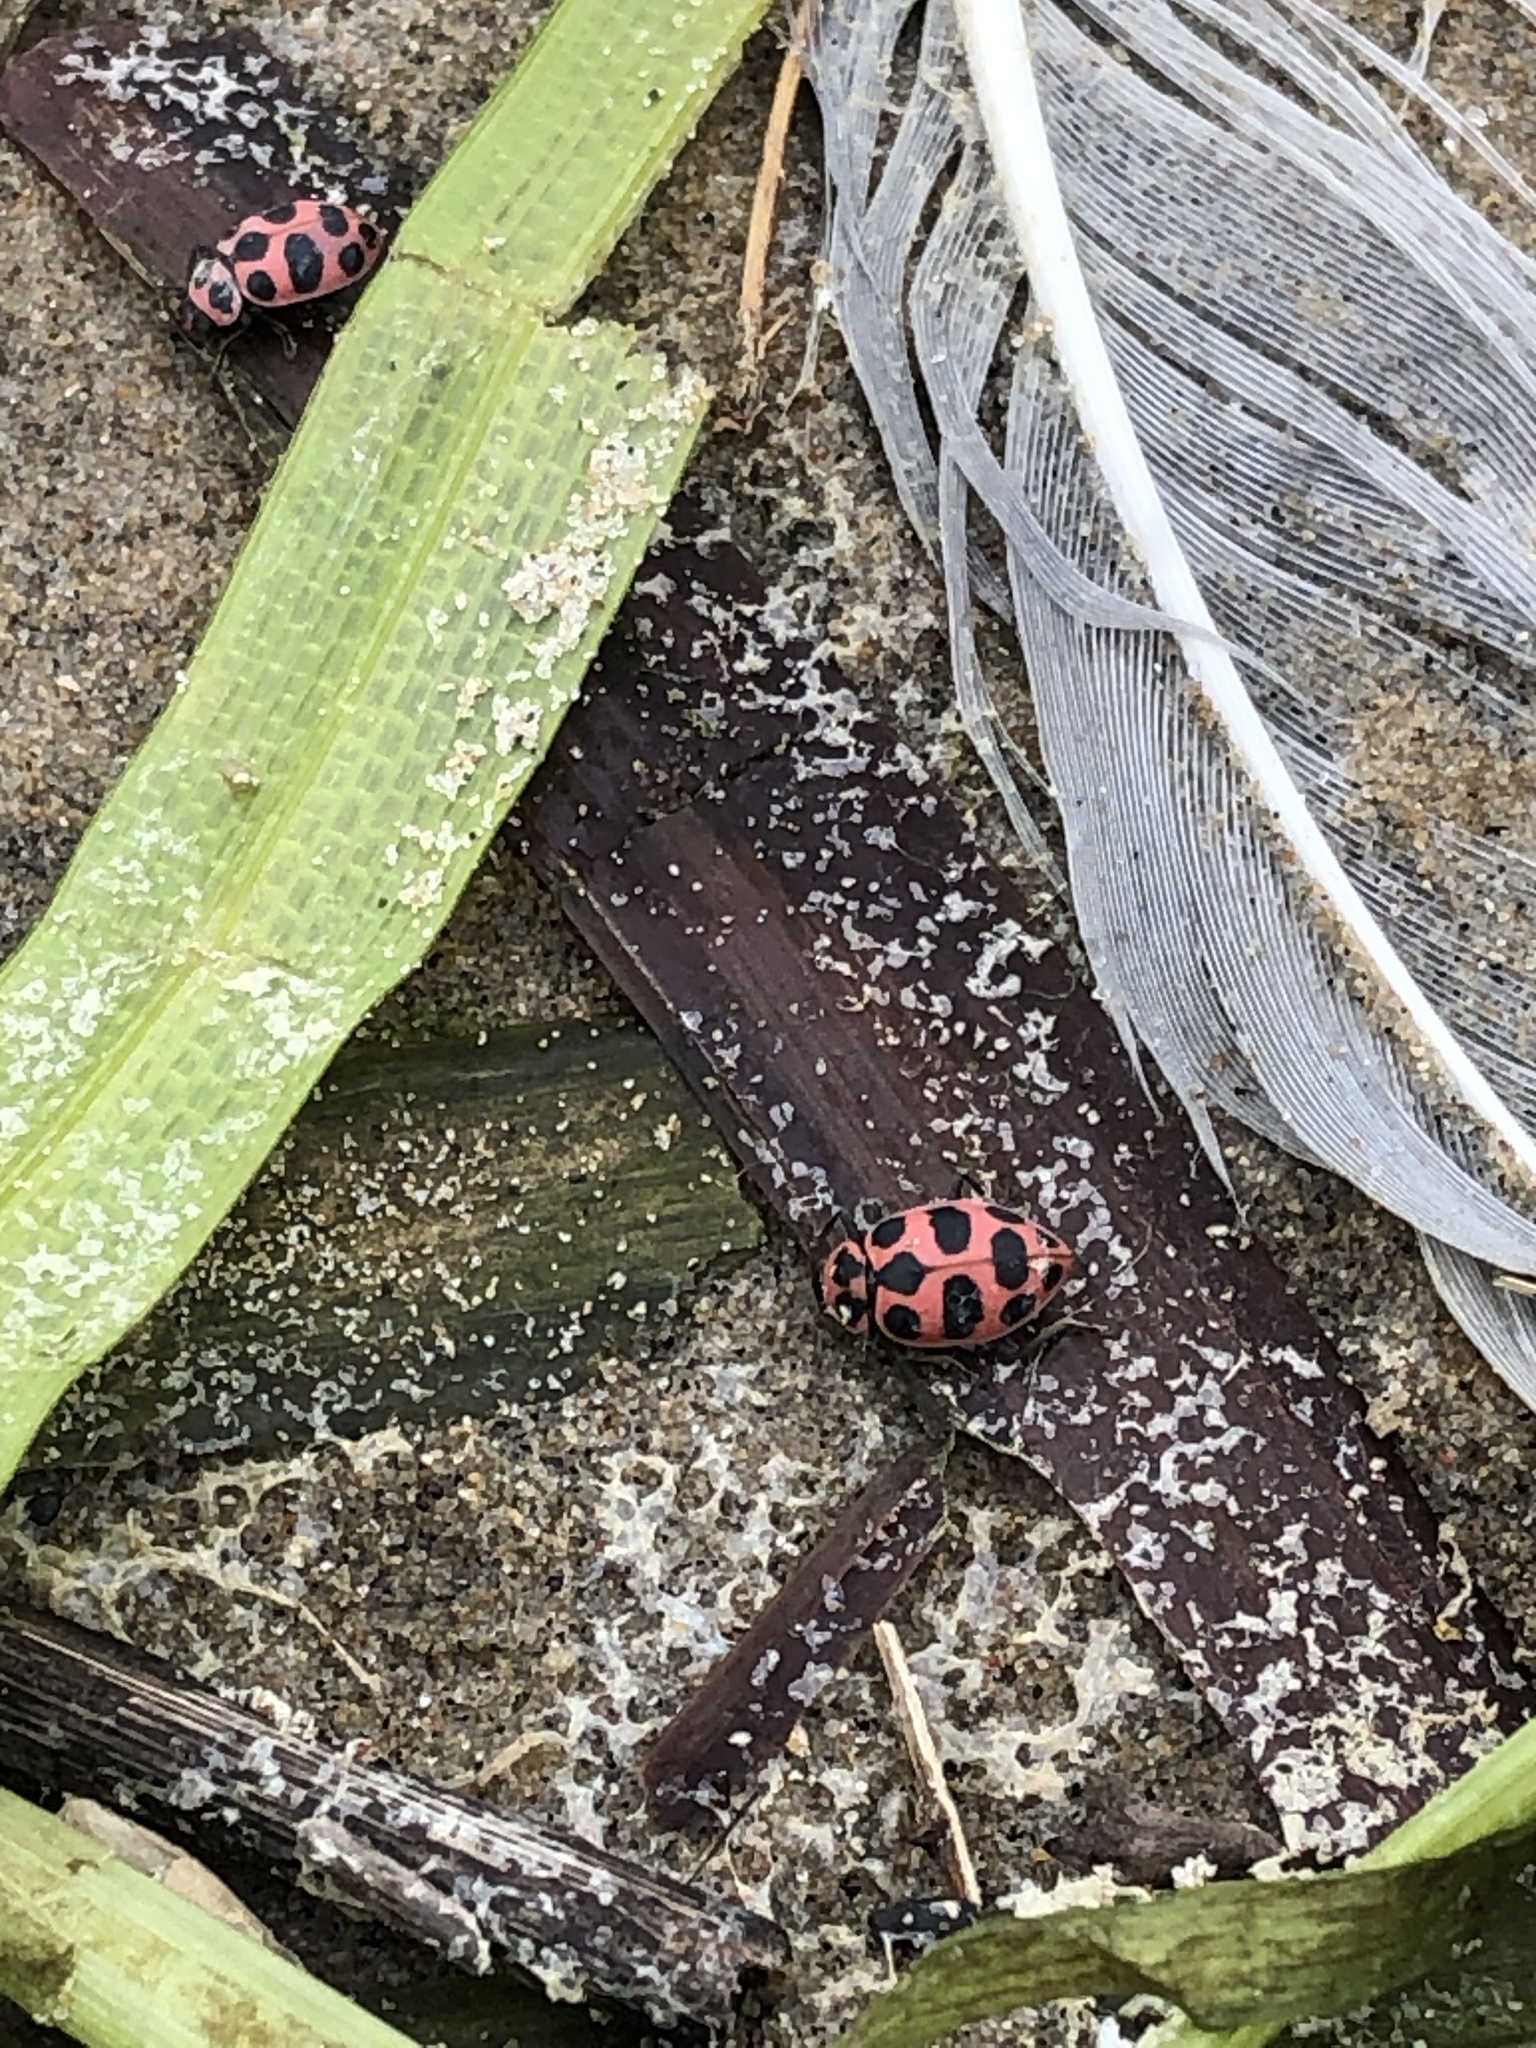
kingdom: Animalia
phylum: Arthropoda
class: Insecta
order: Coleoptera
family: Coccinellidae
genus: Coleomegilla
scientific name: Coleomegilla maculata
